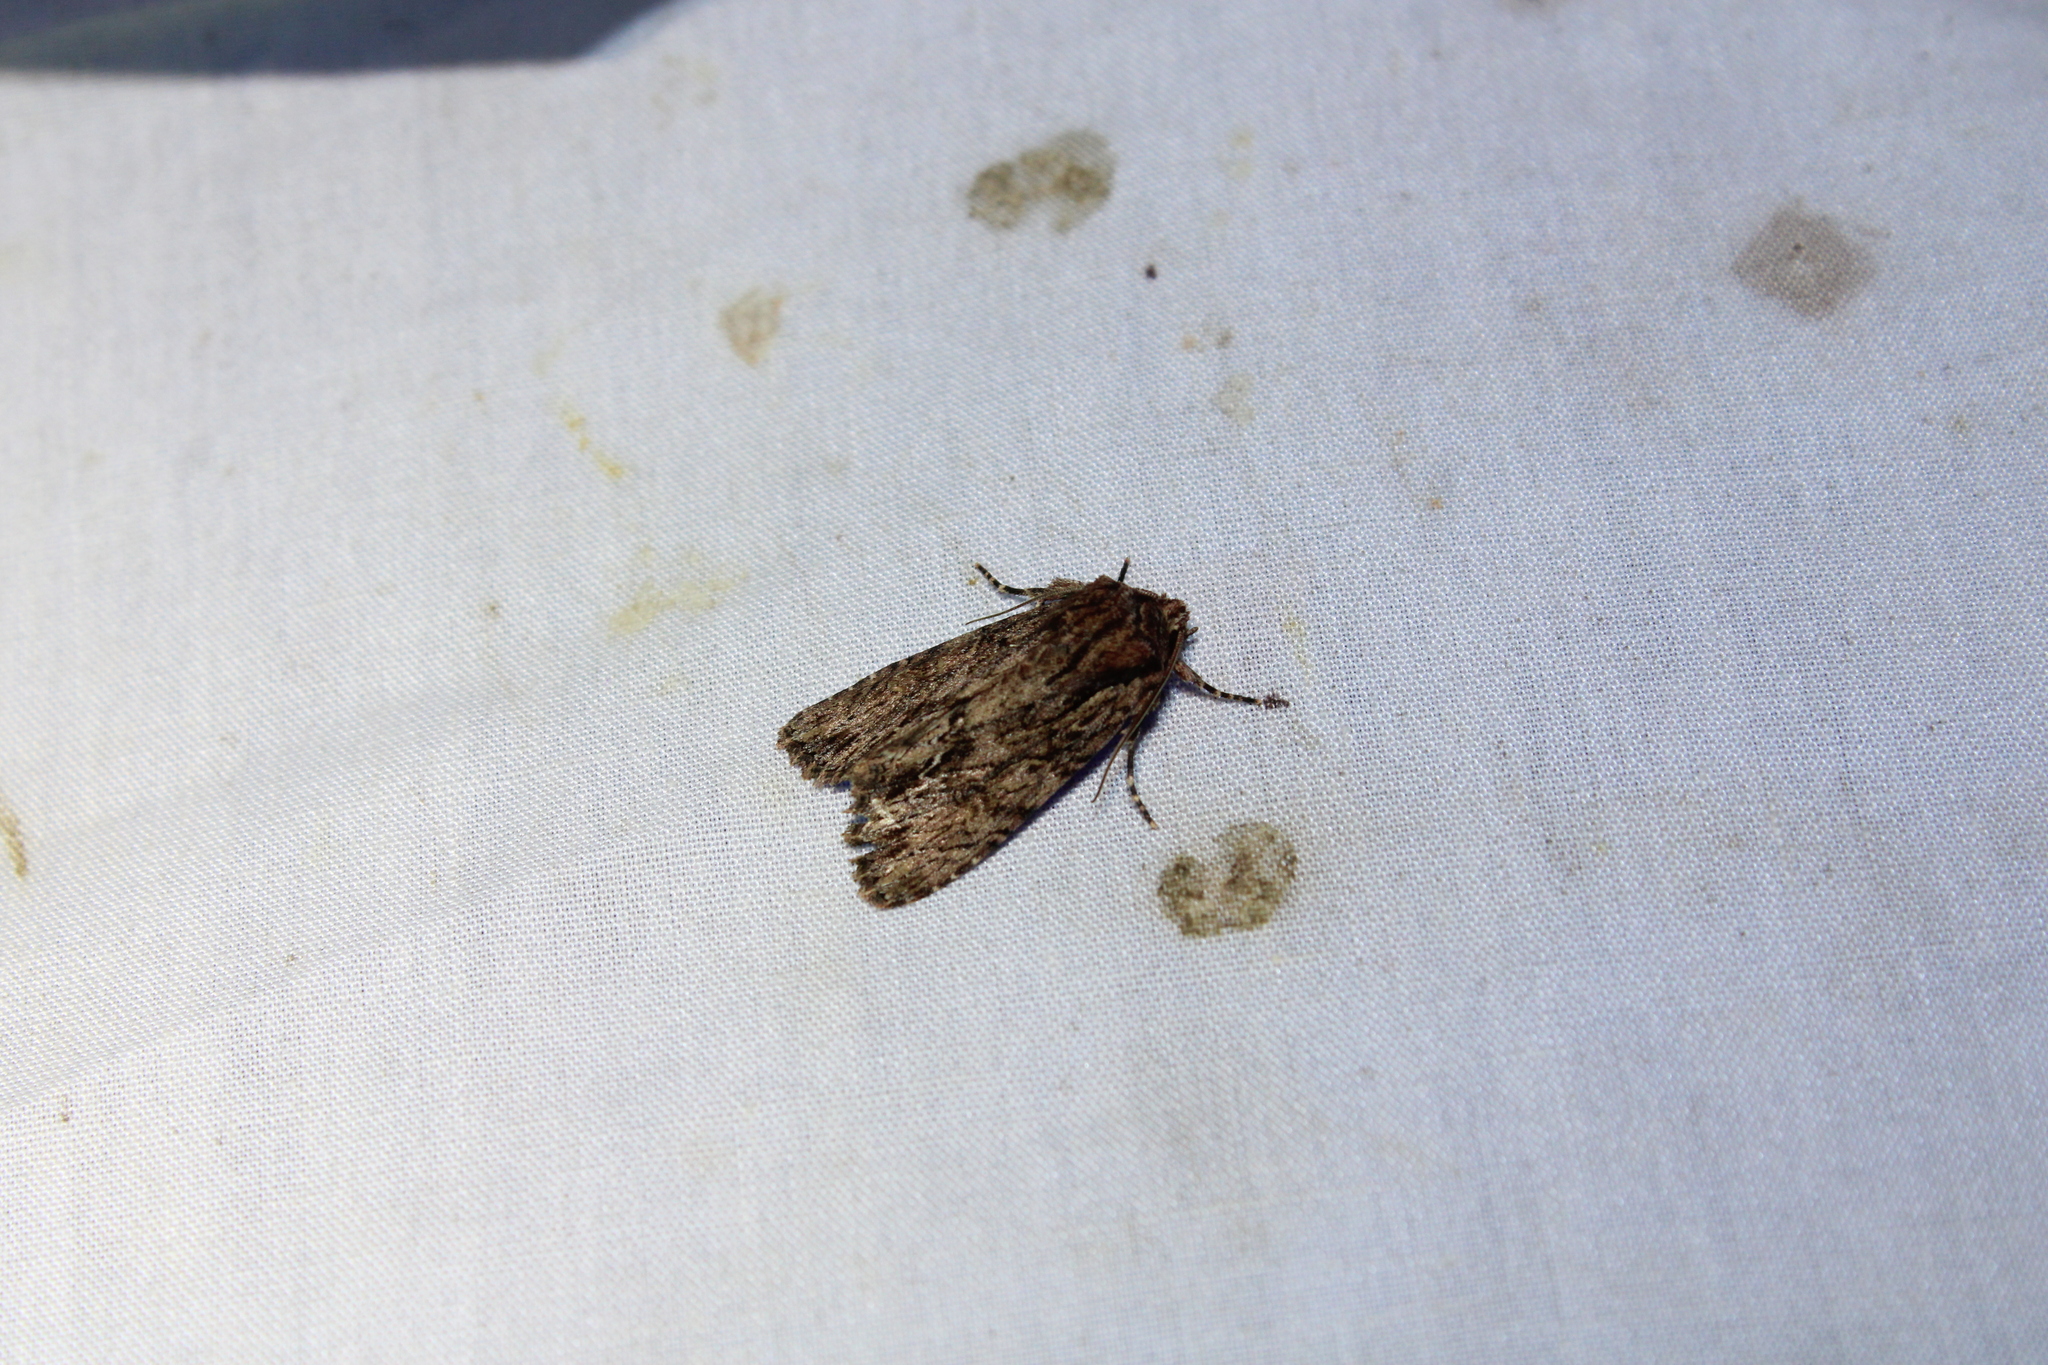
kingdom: Animalia
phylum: Arthropoda
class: Insecta
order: Lepidoptera
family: Noctuidae
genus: Achatia
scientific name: Achatia confusa
